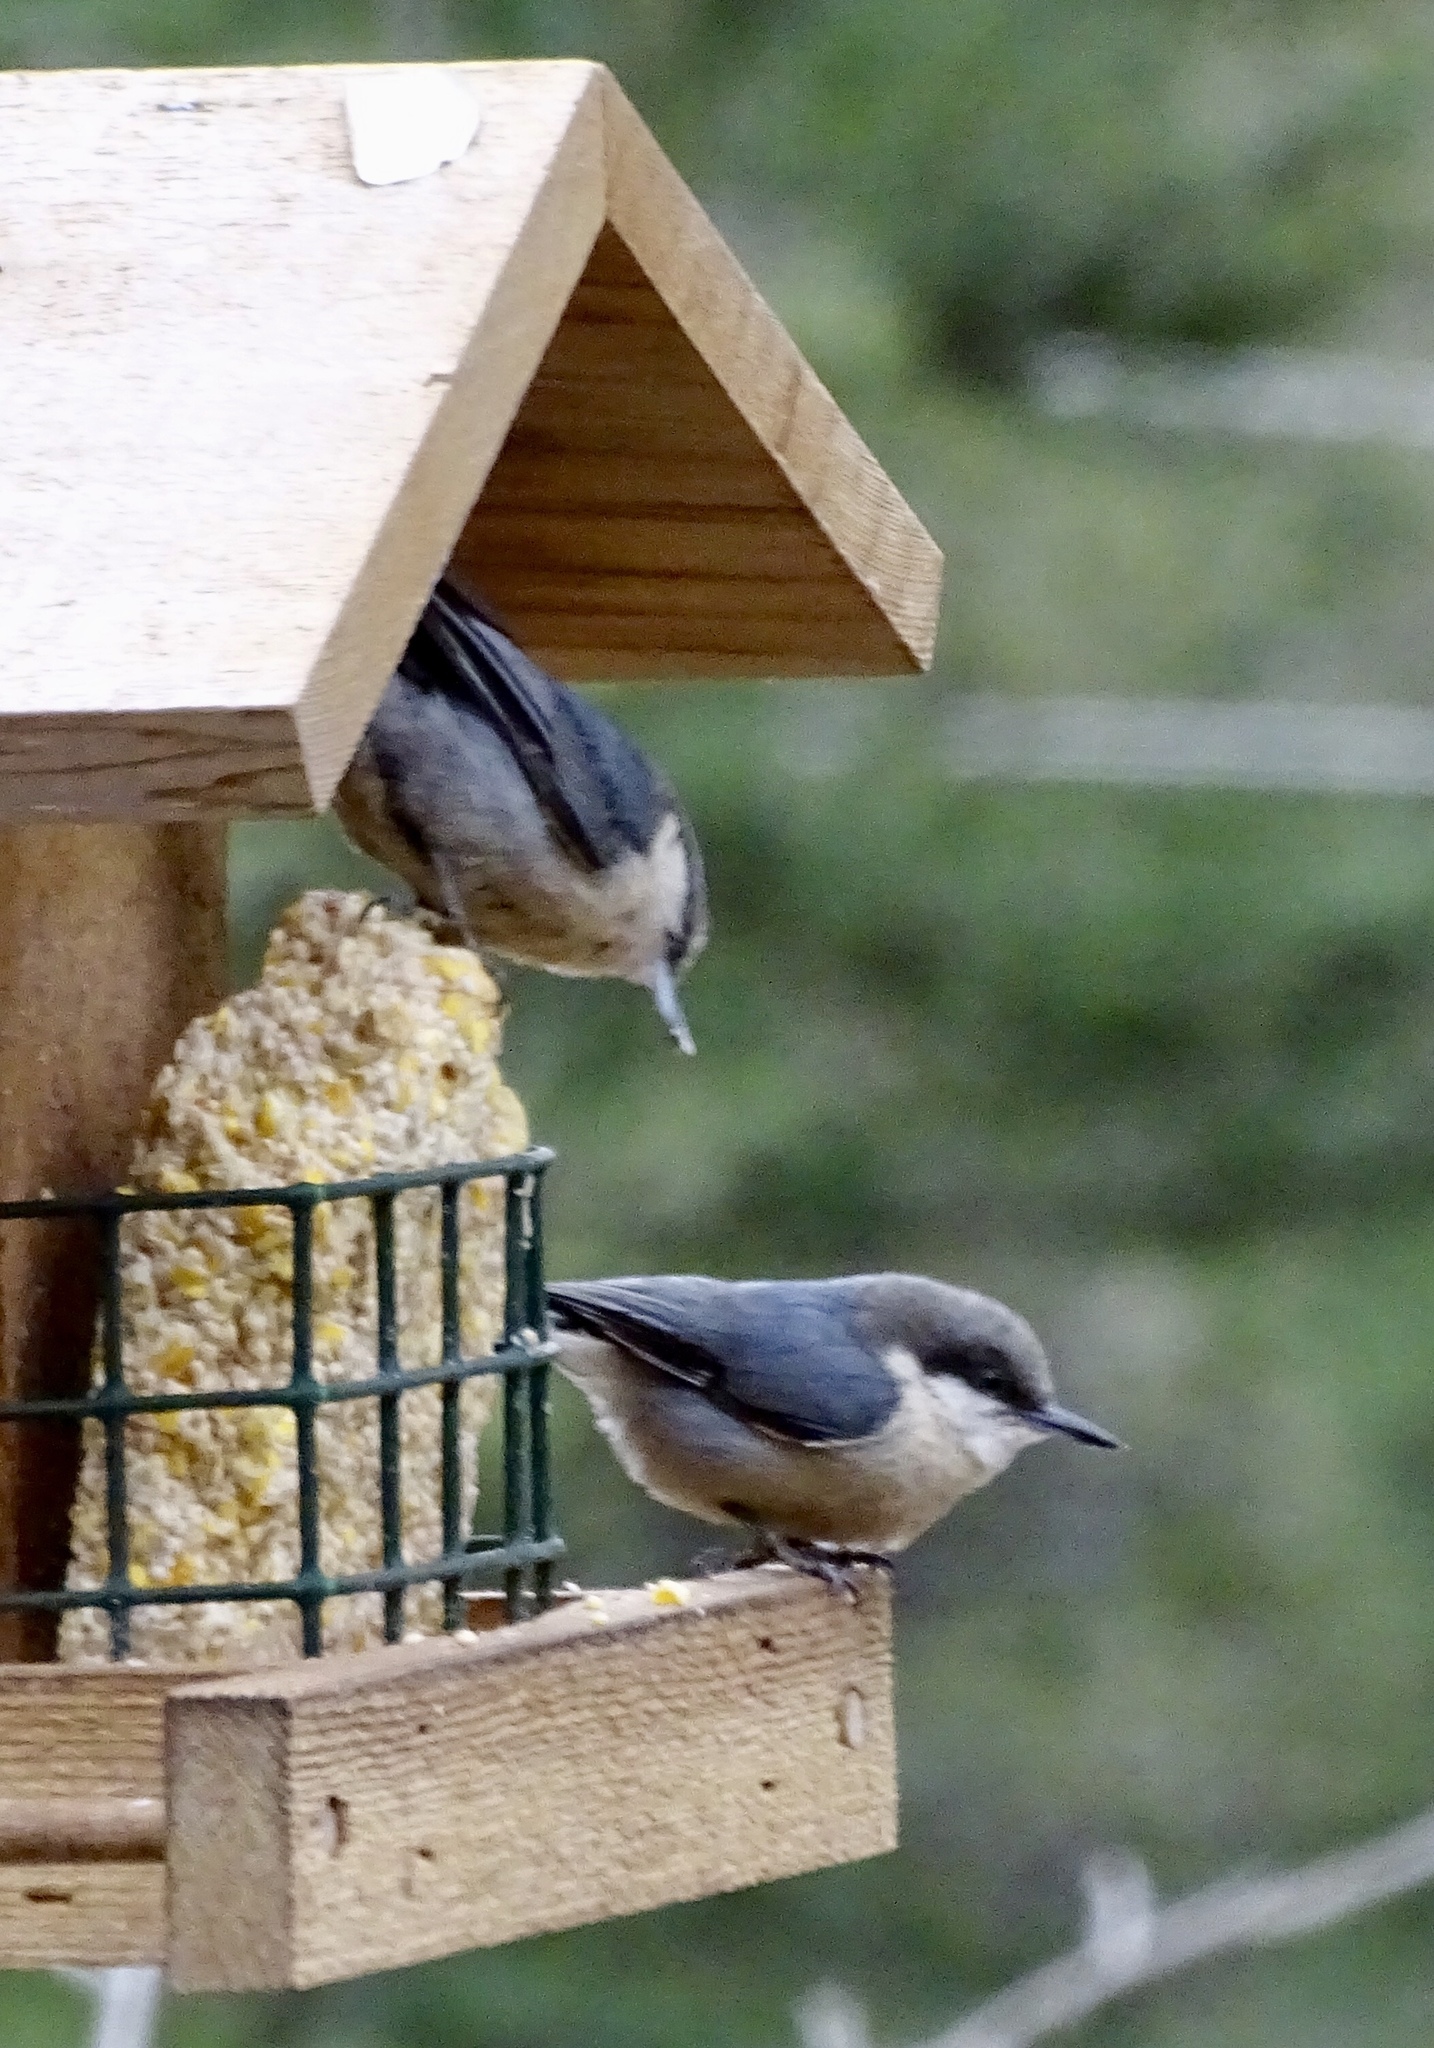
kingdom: Animalia
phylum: Chordata
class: Aves
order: Passeriformes
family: Sittidae
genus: Sitta
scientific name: Sitta pygmaea
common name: Pygmy nuthatch
